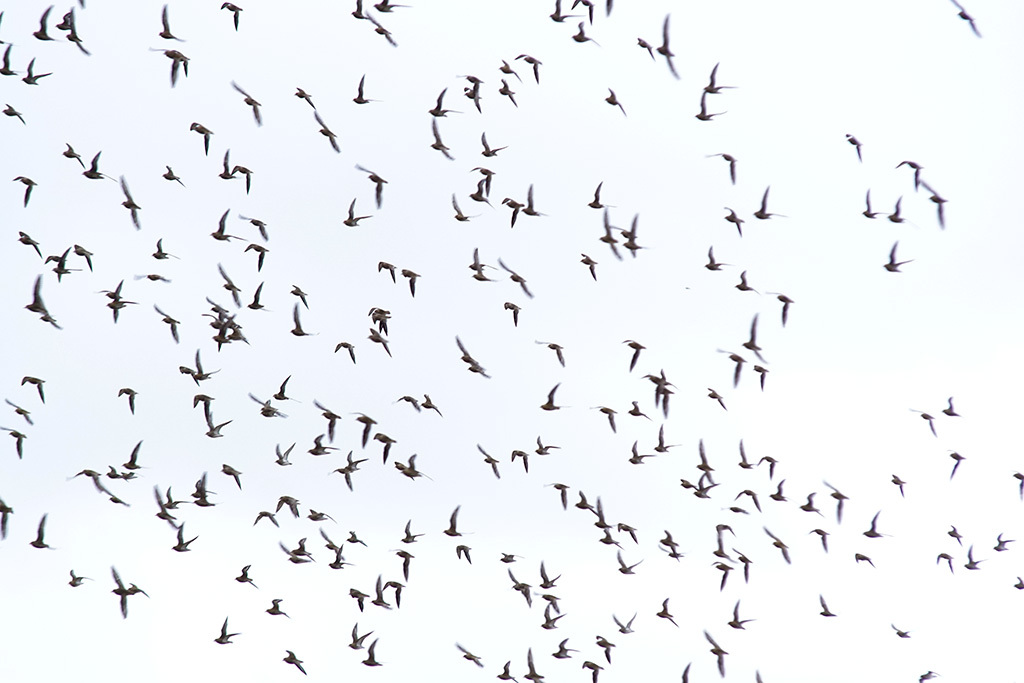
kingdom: Animalia
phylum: Chordata
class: Aves
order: Charadriiformes
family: Charadriidae
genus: Pluvialis
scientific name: Pluvialis apricaria
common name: European golden plover
